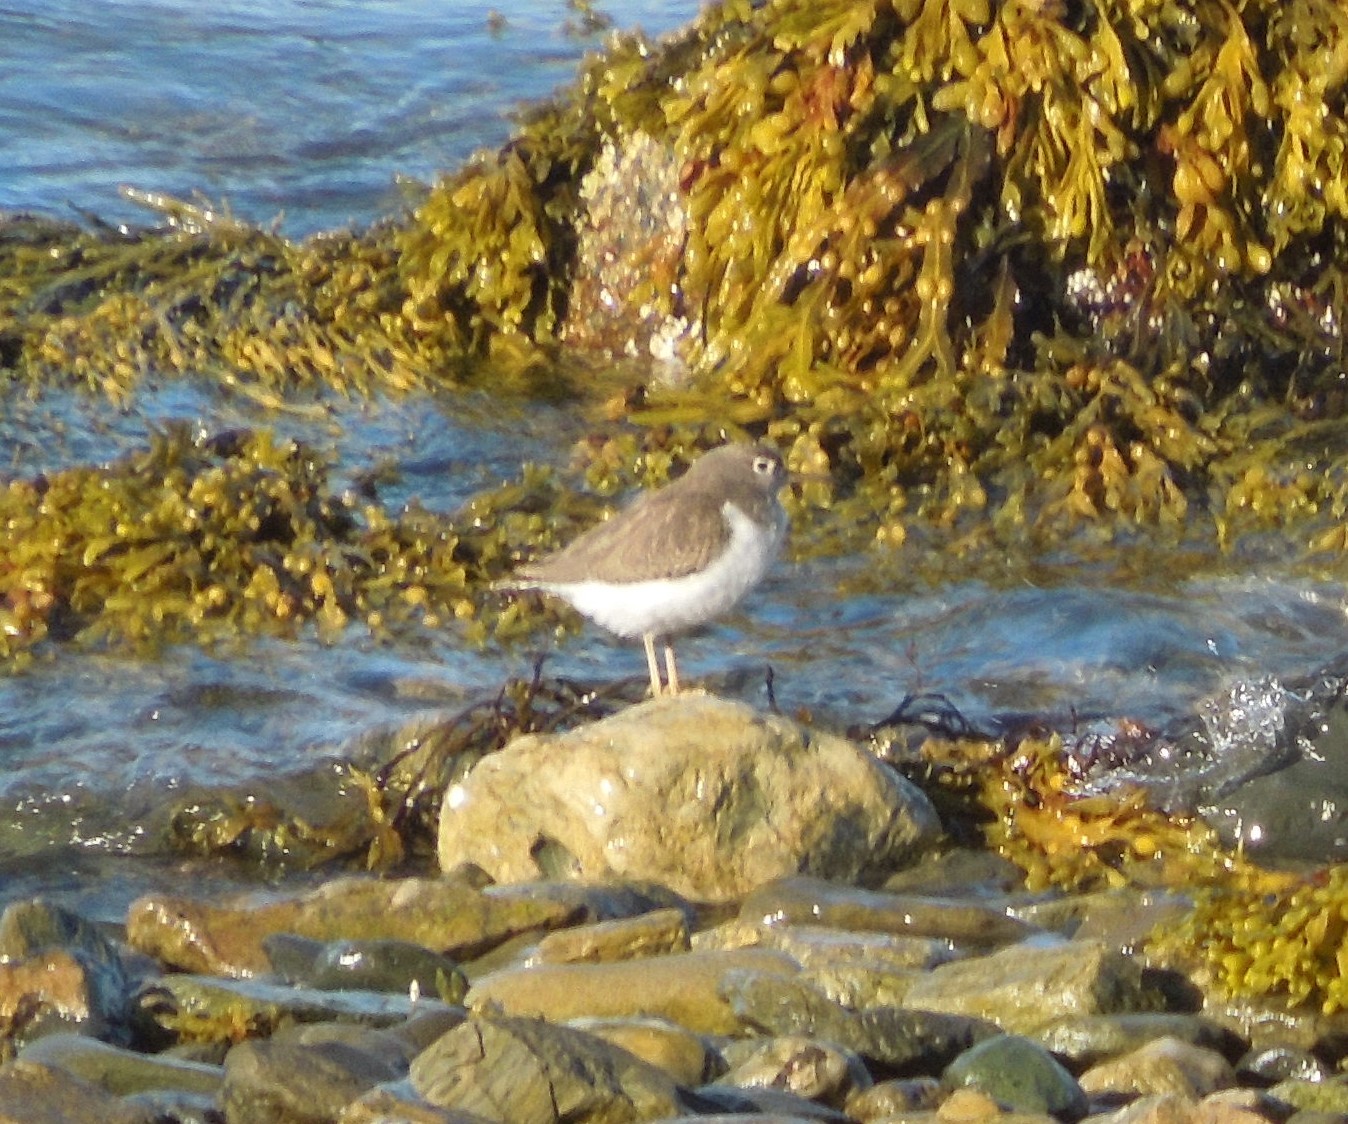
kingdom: Animalia
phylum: Chordata
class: Aves
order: Charadriiformes
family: Scolopacidae
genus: Actitis
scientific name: Actitis macularius
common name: Spotted sandpiper
